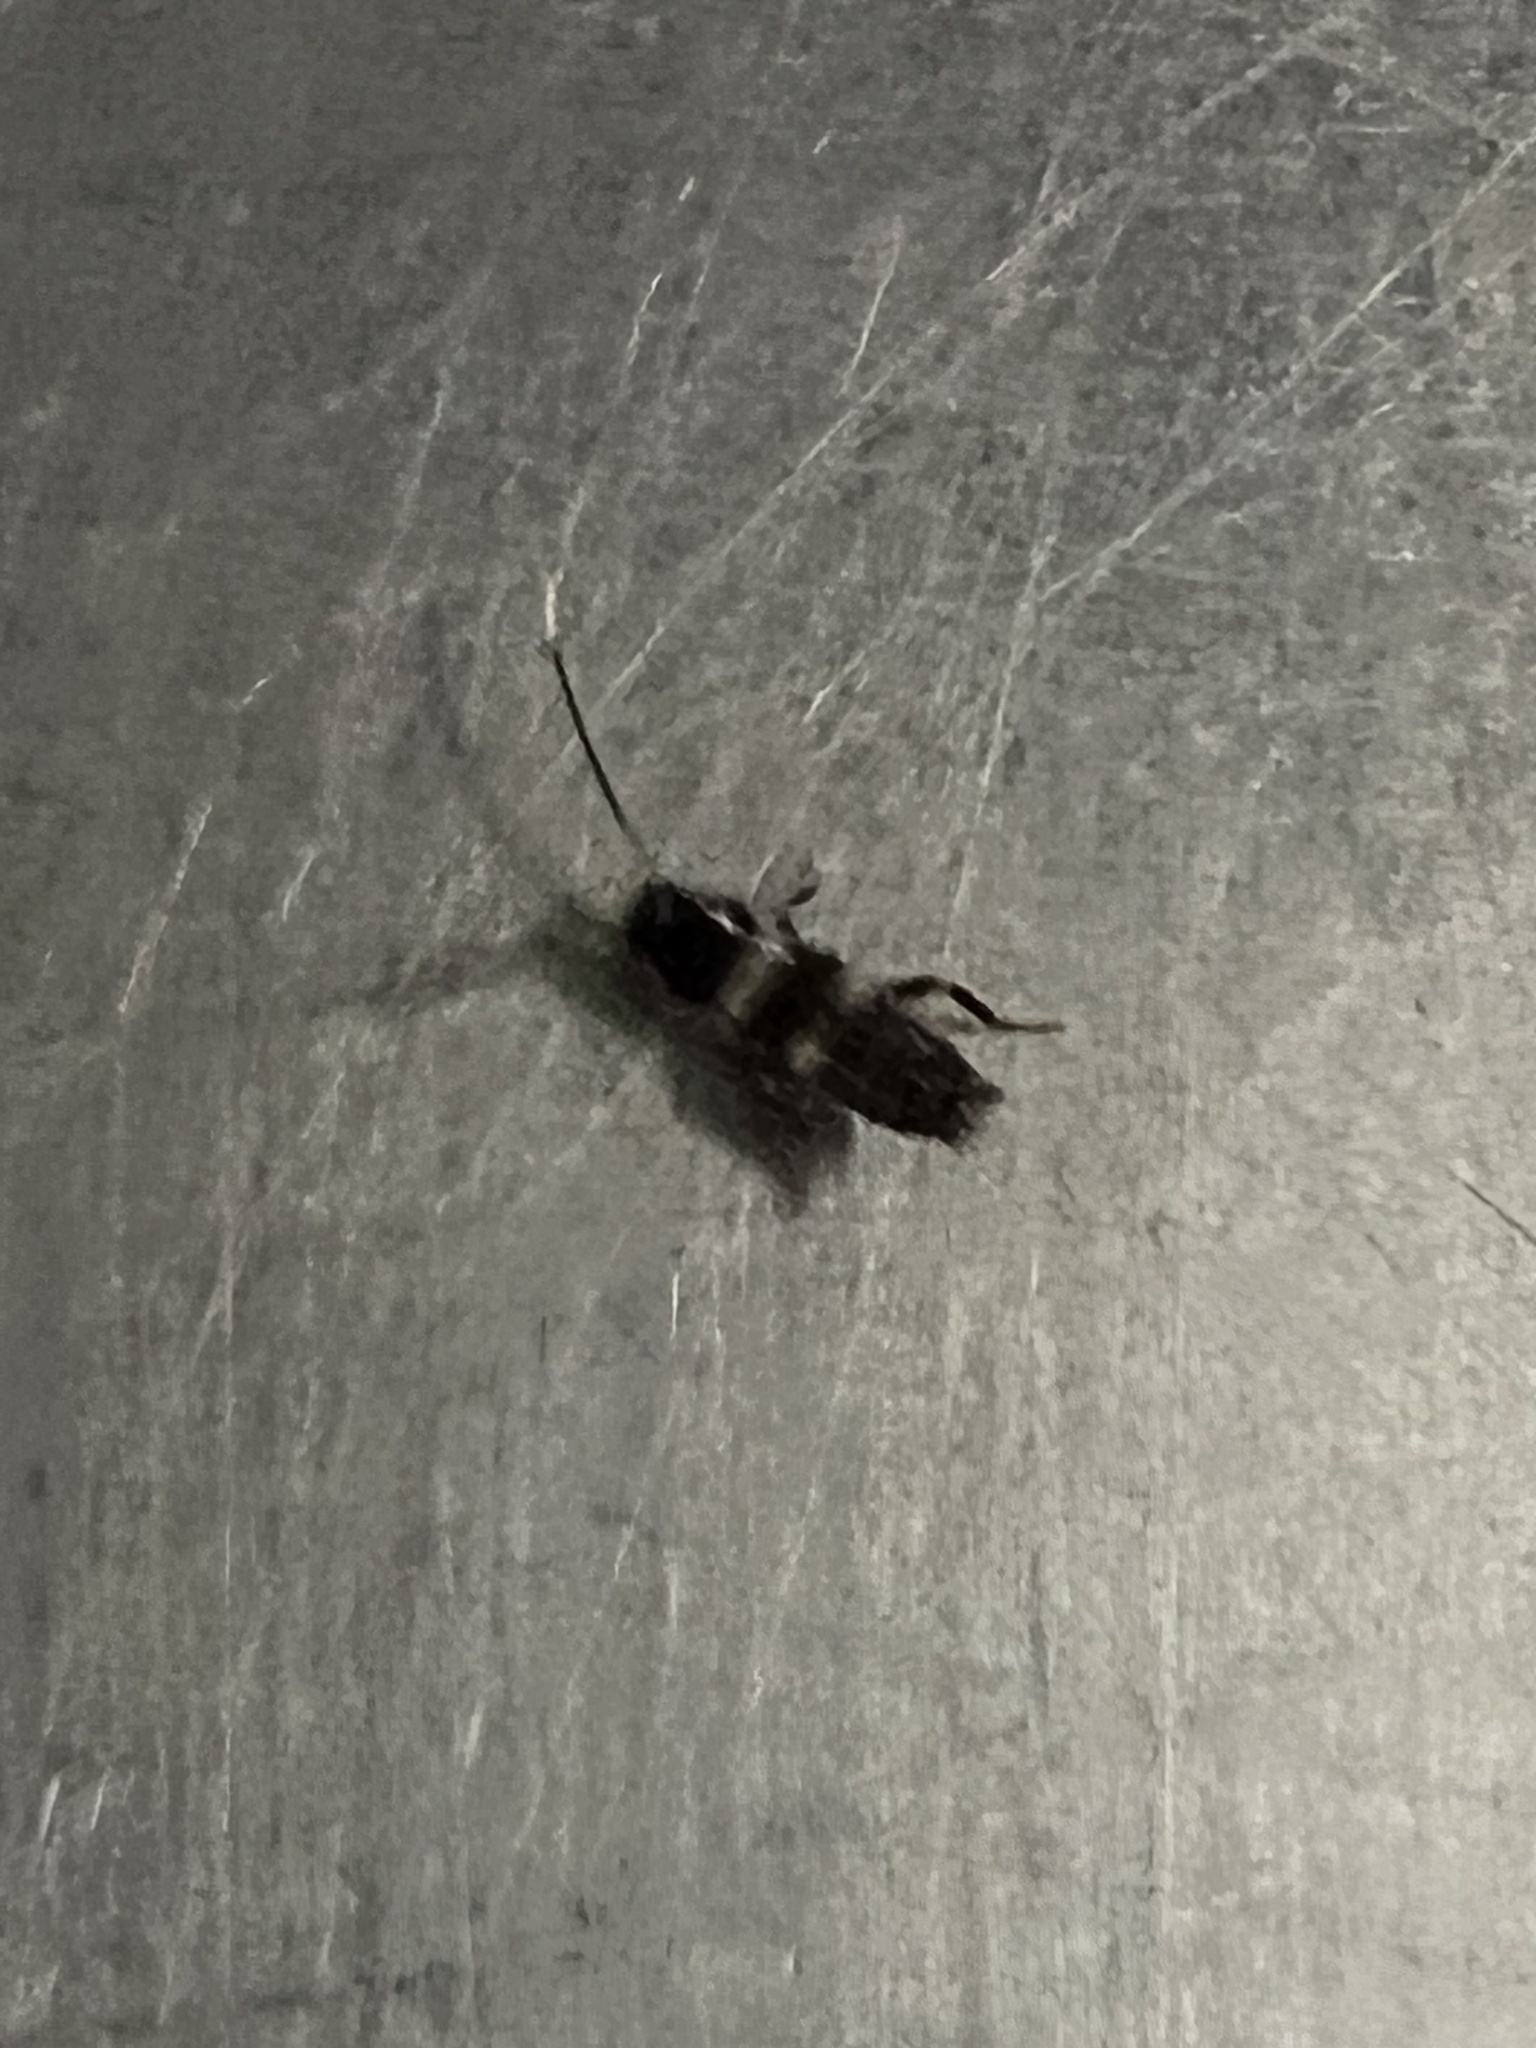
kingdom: Animalia
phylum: Arthropoda
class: Insecta
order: Blattodea
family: Blattidae
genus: Periplaneta
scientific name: Periplaneta fuliginosa
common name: Smokeybrown cockroad
